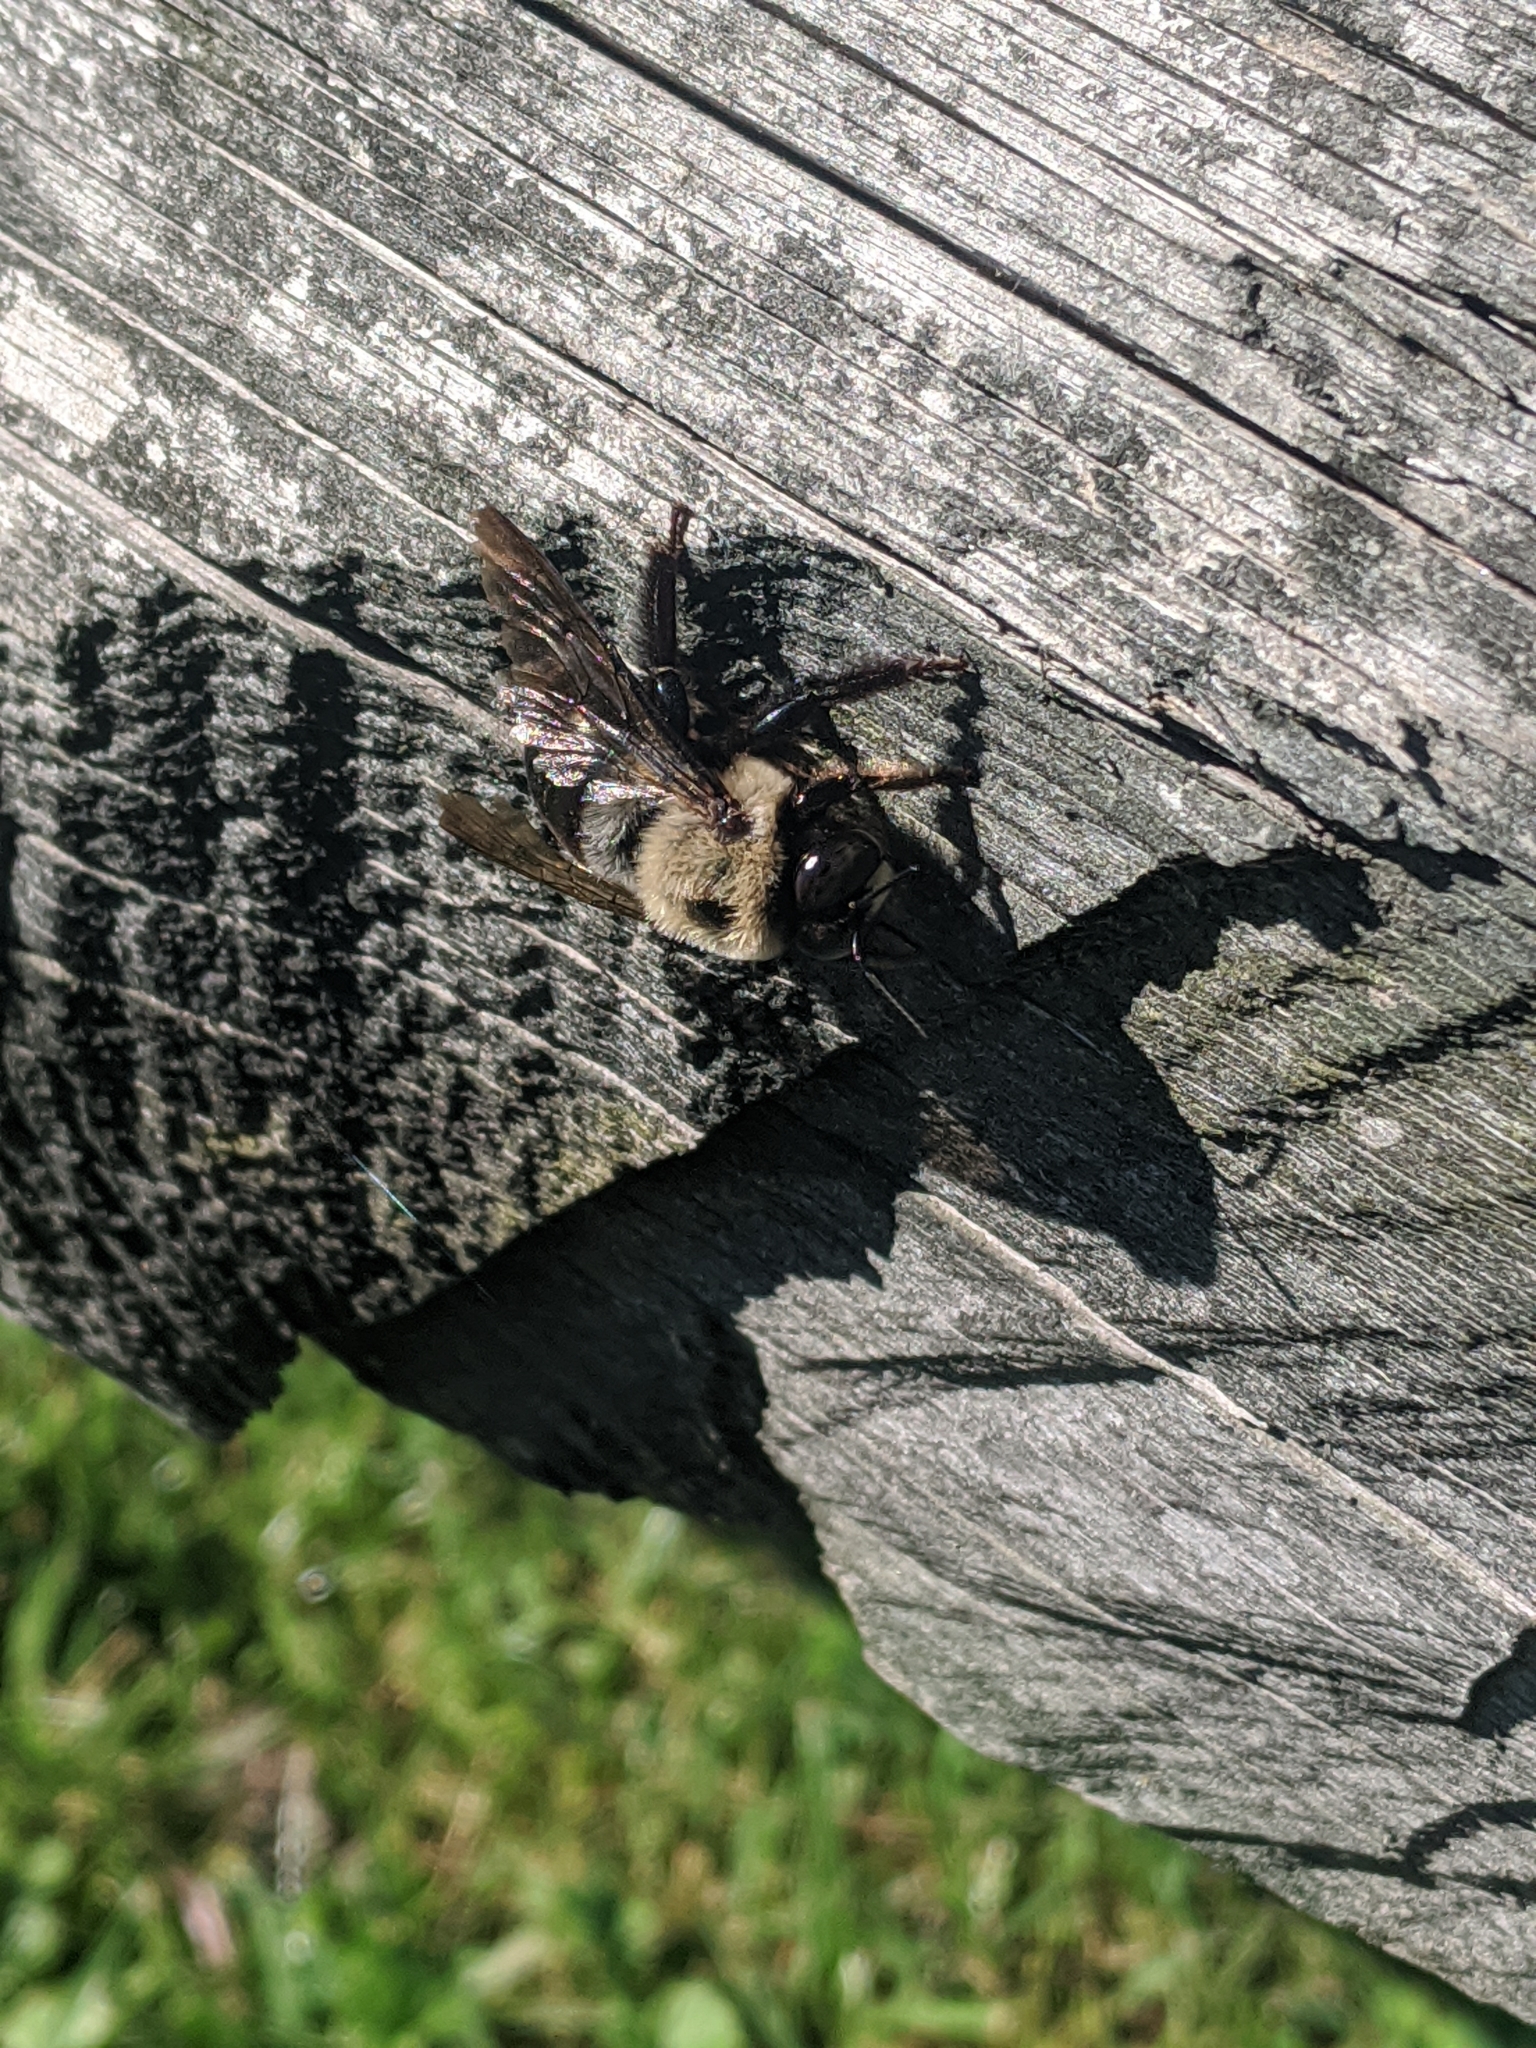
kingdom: Animalia
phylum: Arthropoda
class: Insecta
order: Hymenoptera
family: Apidae
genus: Xylocopa
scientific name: Xylocopa virginica
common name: Carpenter bee
